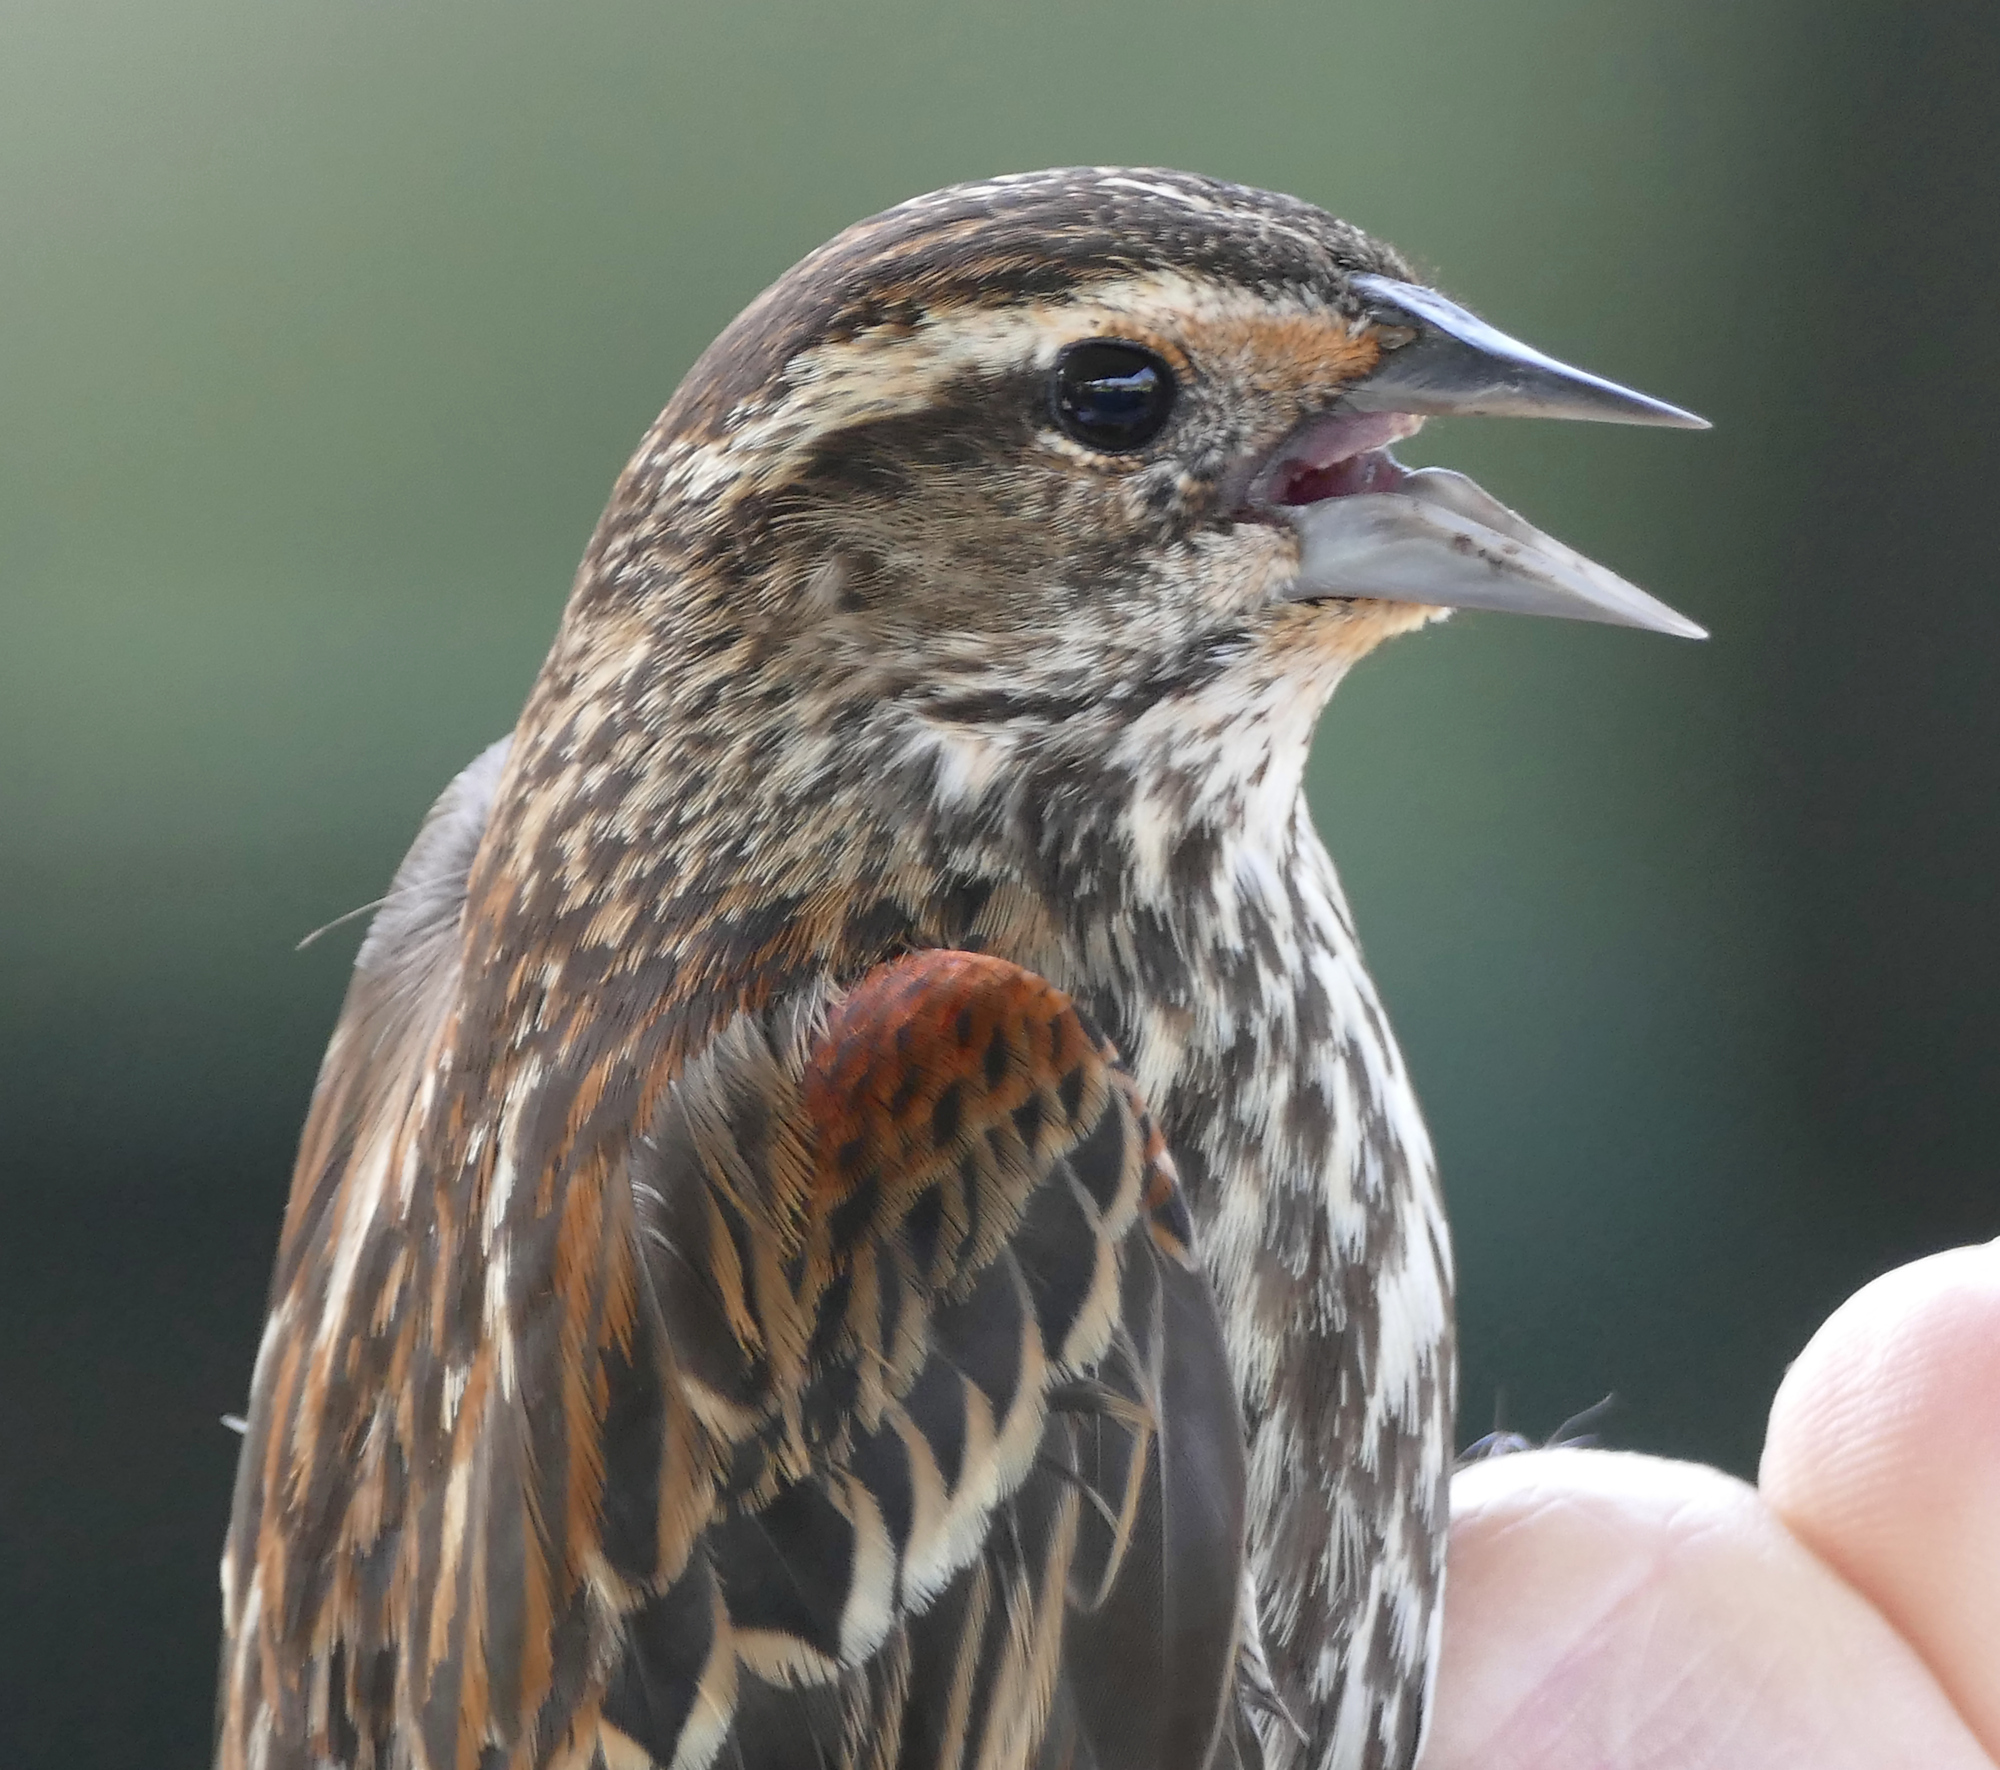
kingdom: Animalia
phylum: Chordata
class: Aves
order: Passeriformes
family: Icteridae
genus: Agelaius
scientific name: Agelaius phoeniceus
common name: Red-winged blackbird
